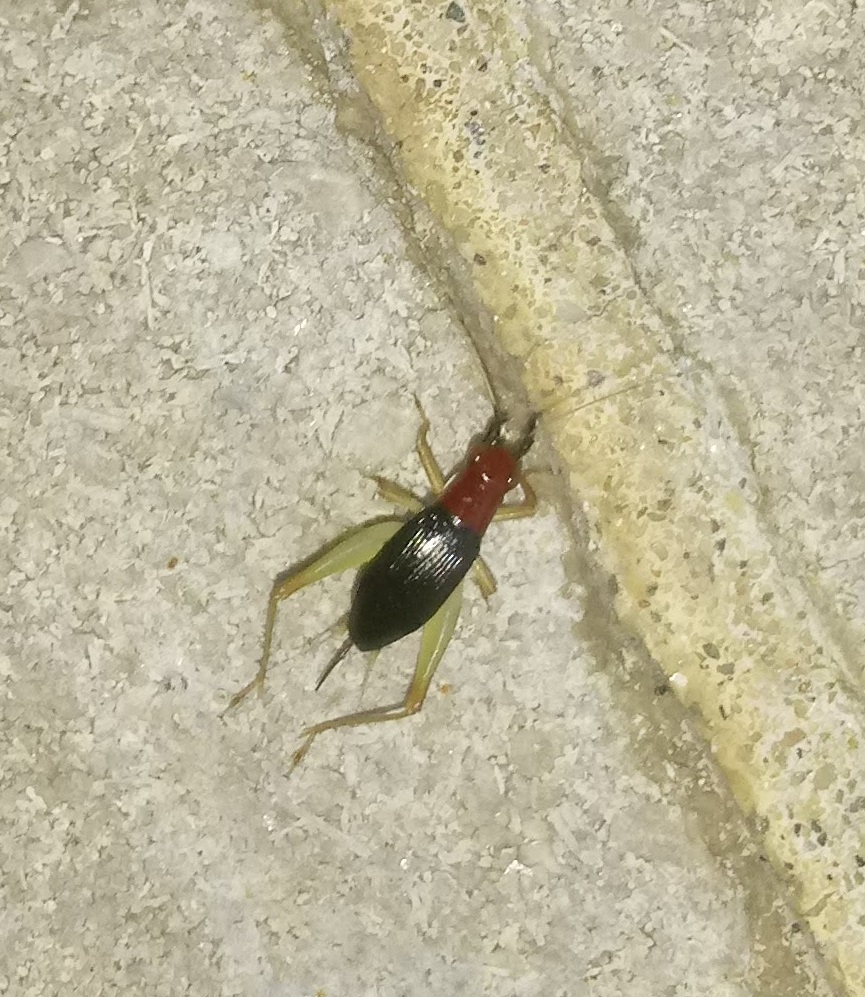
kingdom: Animalia
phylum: Arthropoda
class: Insecta
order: Orthoptera
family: Trigonidiidae
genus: Phyllopalpus
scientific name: Phyllopalpus pulchellus
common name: Handsome trig
